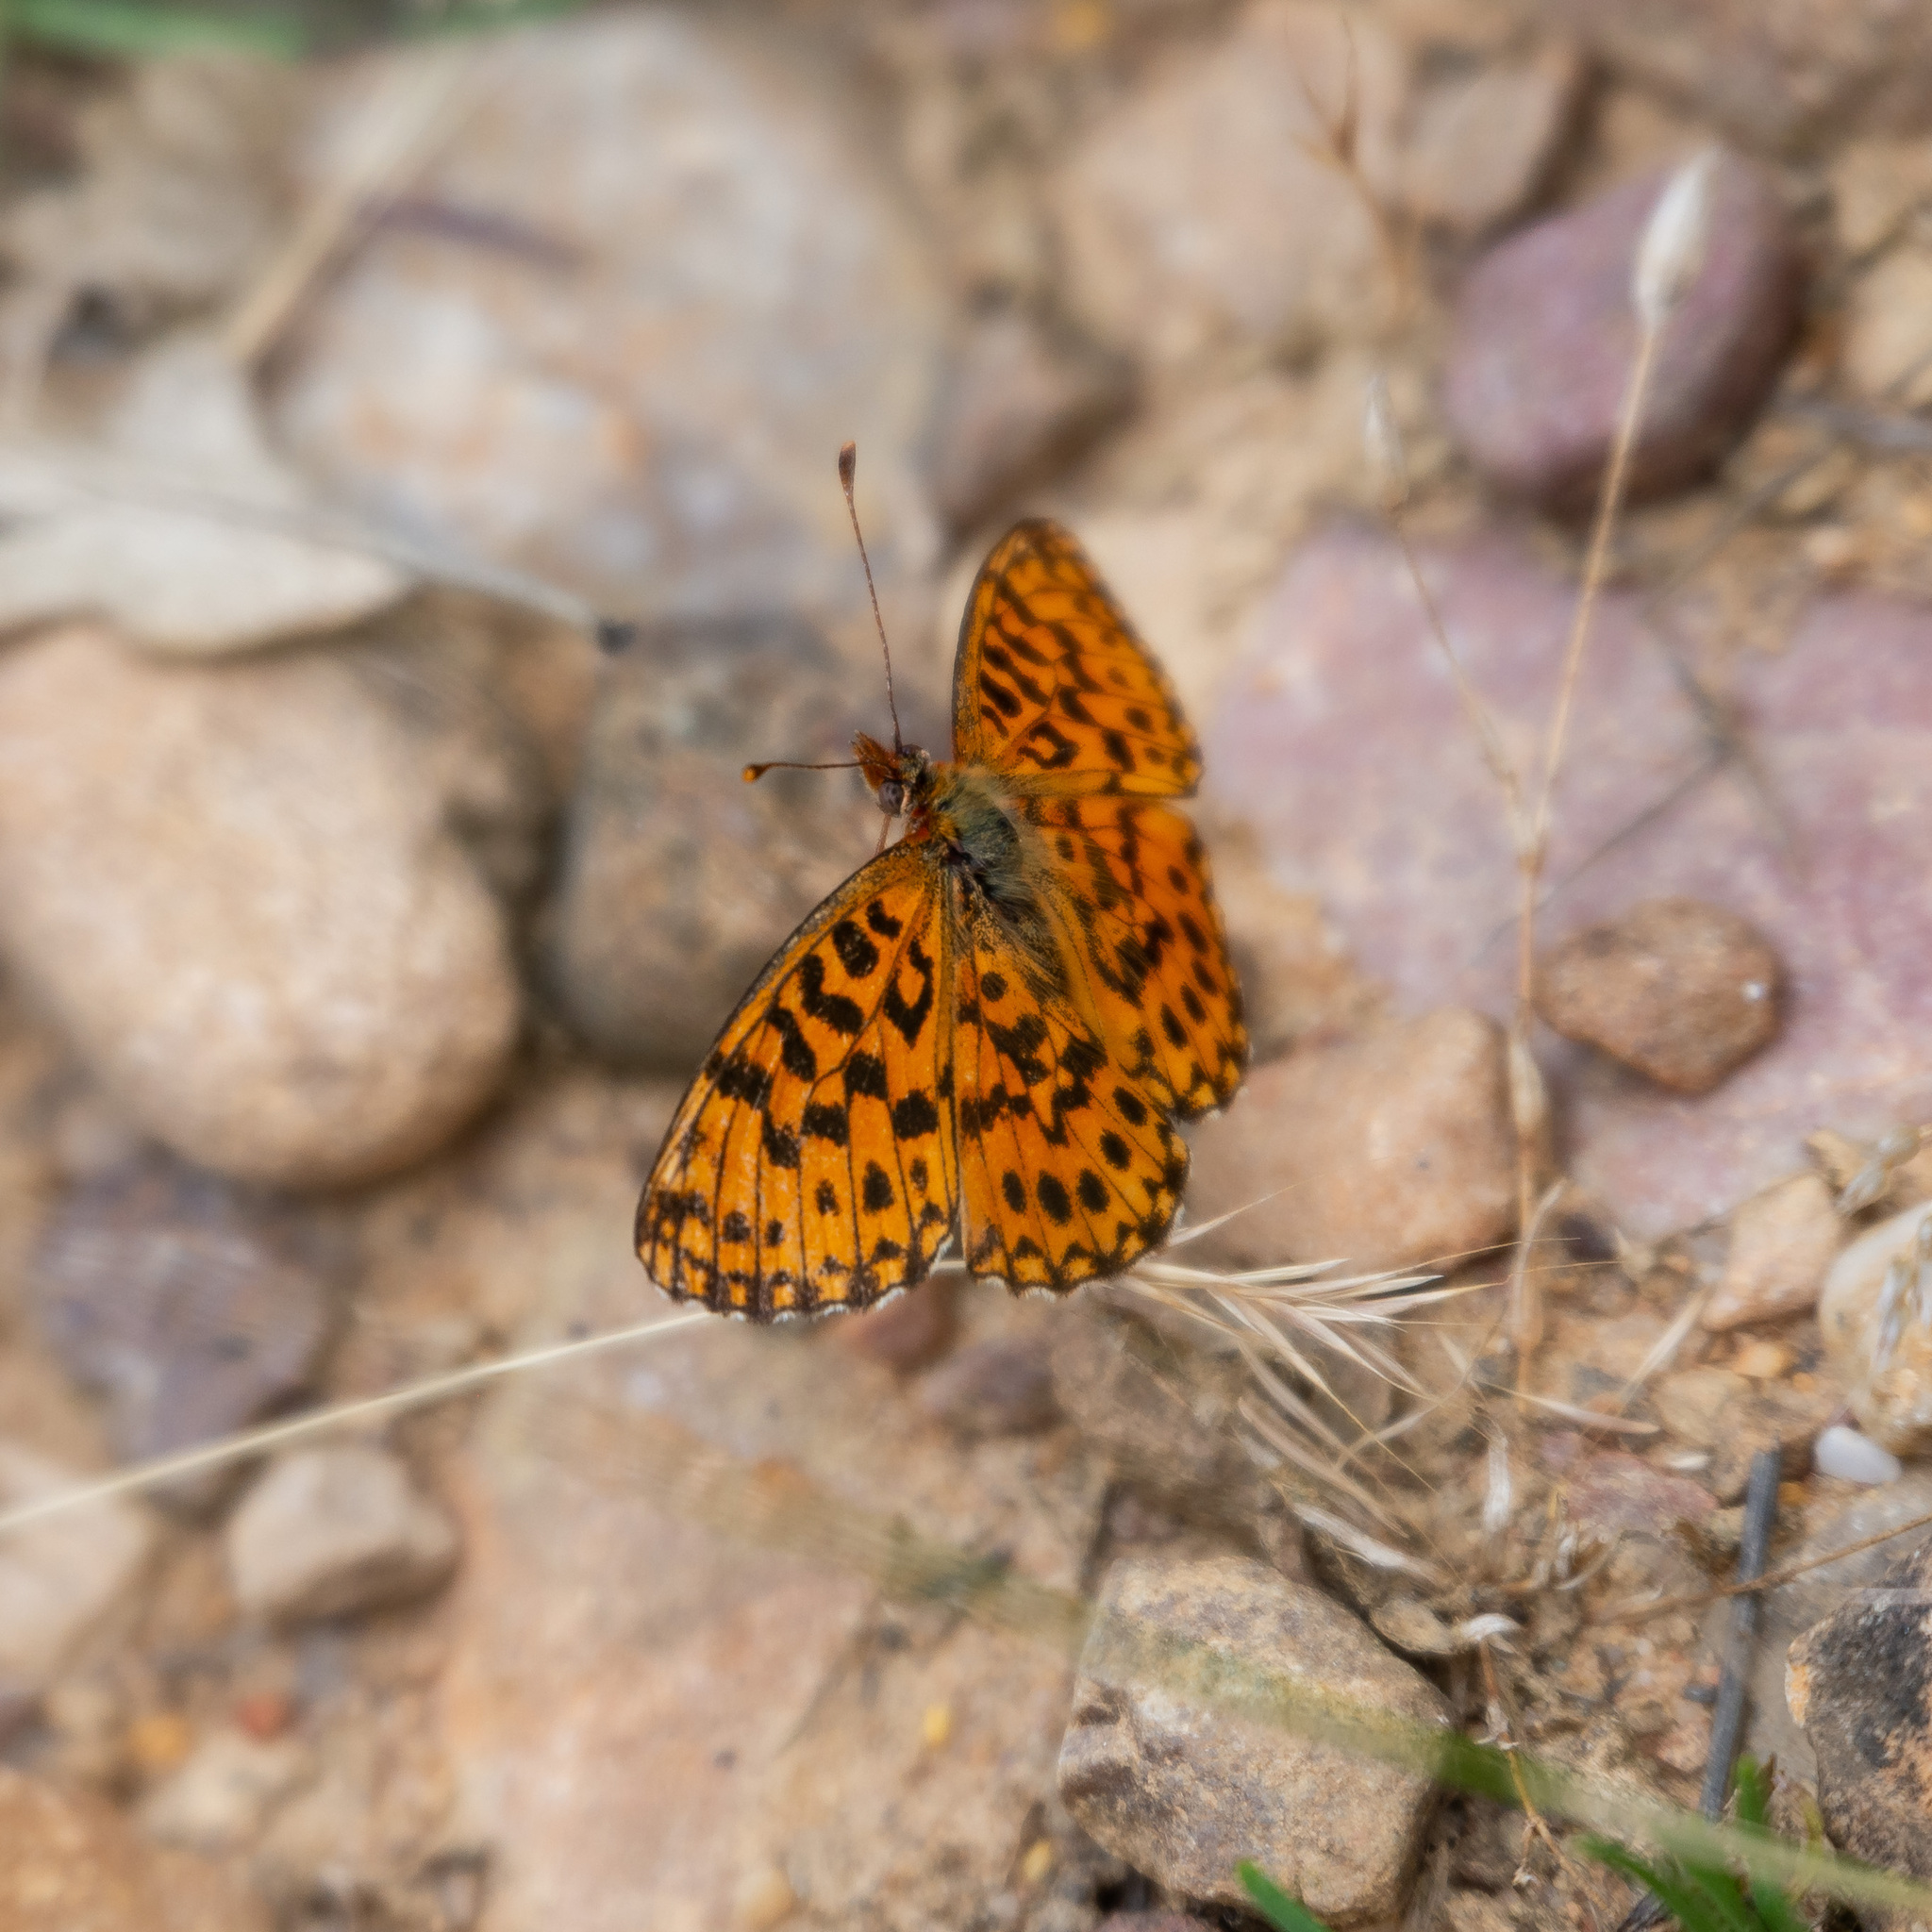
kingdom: Animalia
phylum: Arthropoda
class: Insecta
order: Lepidoptera
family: Nymphalidae
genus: Boloria
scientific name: Boloria dia
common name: Weaver's fritillary
